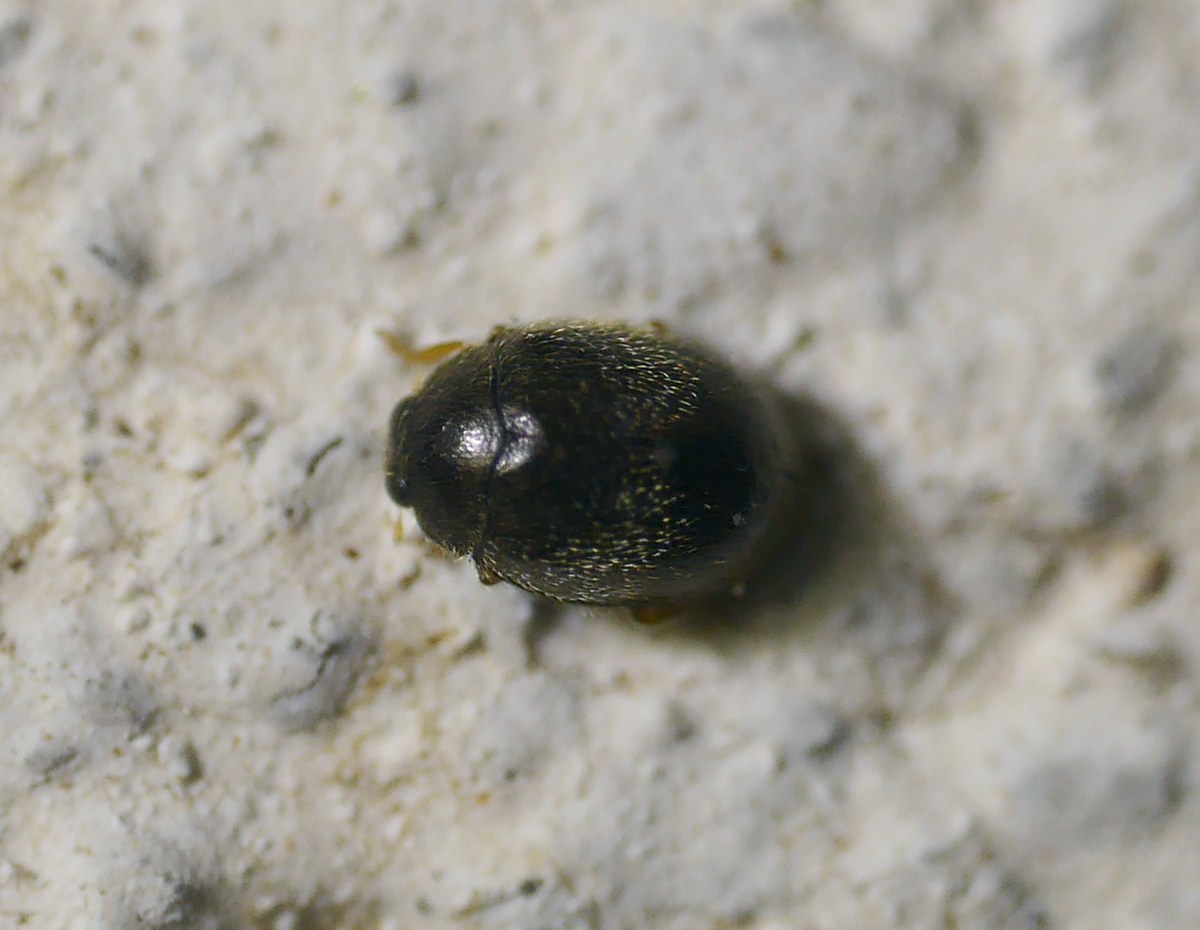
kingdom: Animalia
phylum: Arthropoda
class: Insecta
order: Coleoptera
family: Coccinellidae
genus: Stethorus
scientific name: Stethorus pusillus
